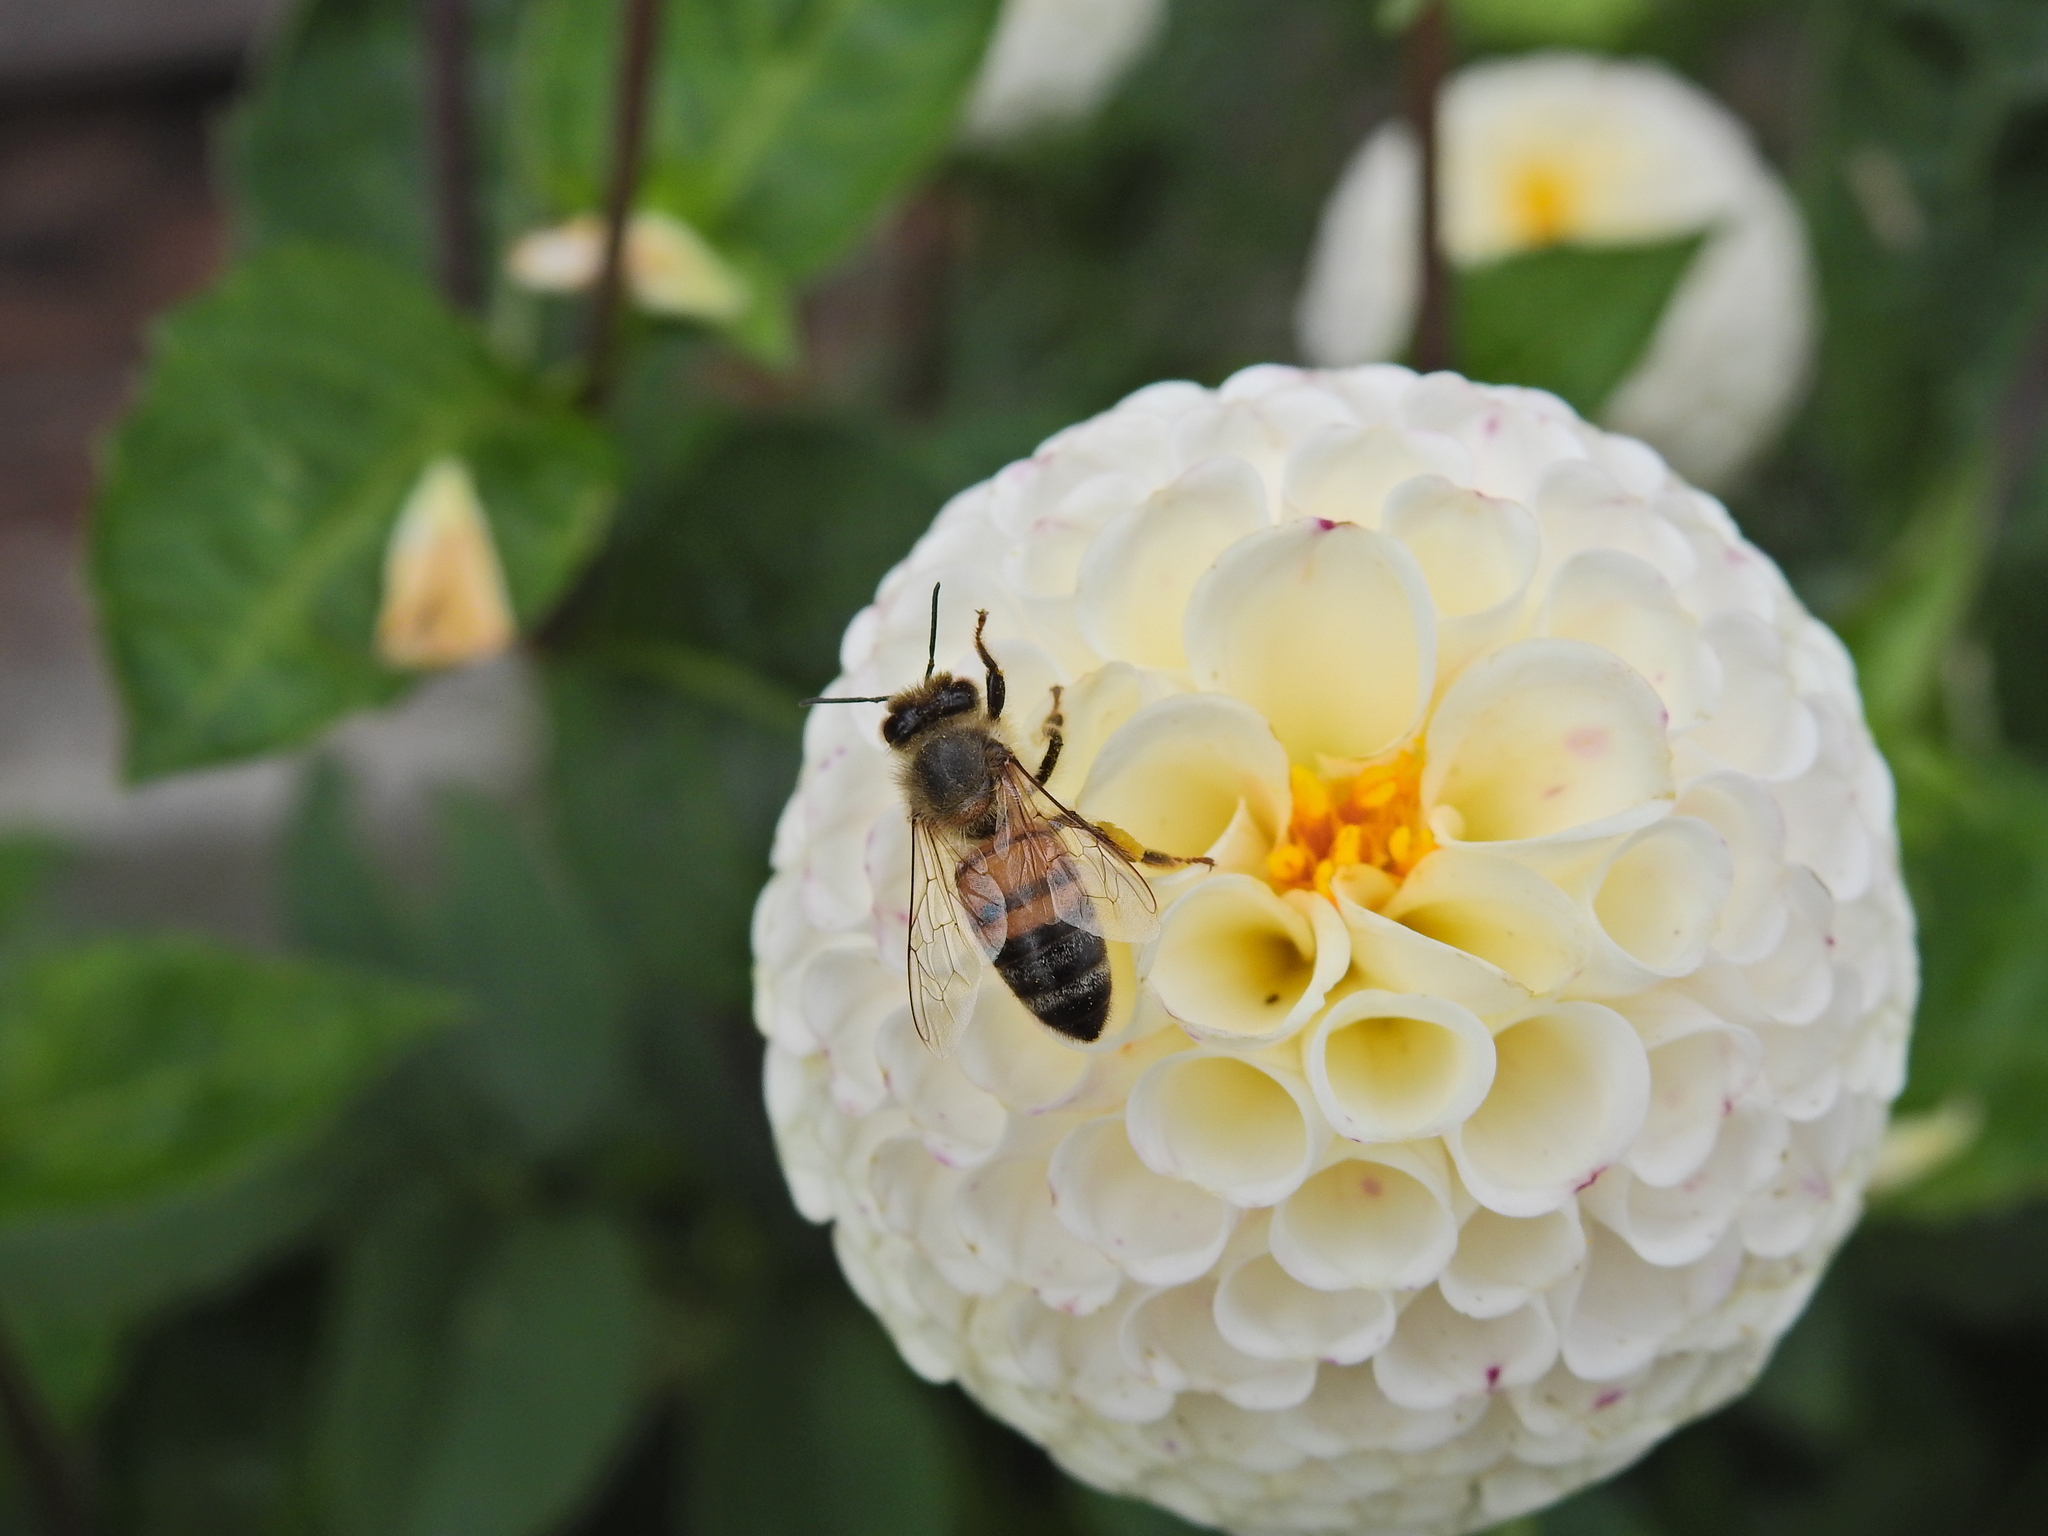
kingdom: Animalia
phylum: Arthropoda
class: Insecta
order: Hymenoptera
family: Apidae
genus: Apis
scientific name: Apis mellifera
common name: Honey bee
